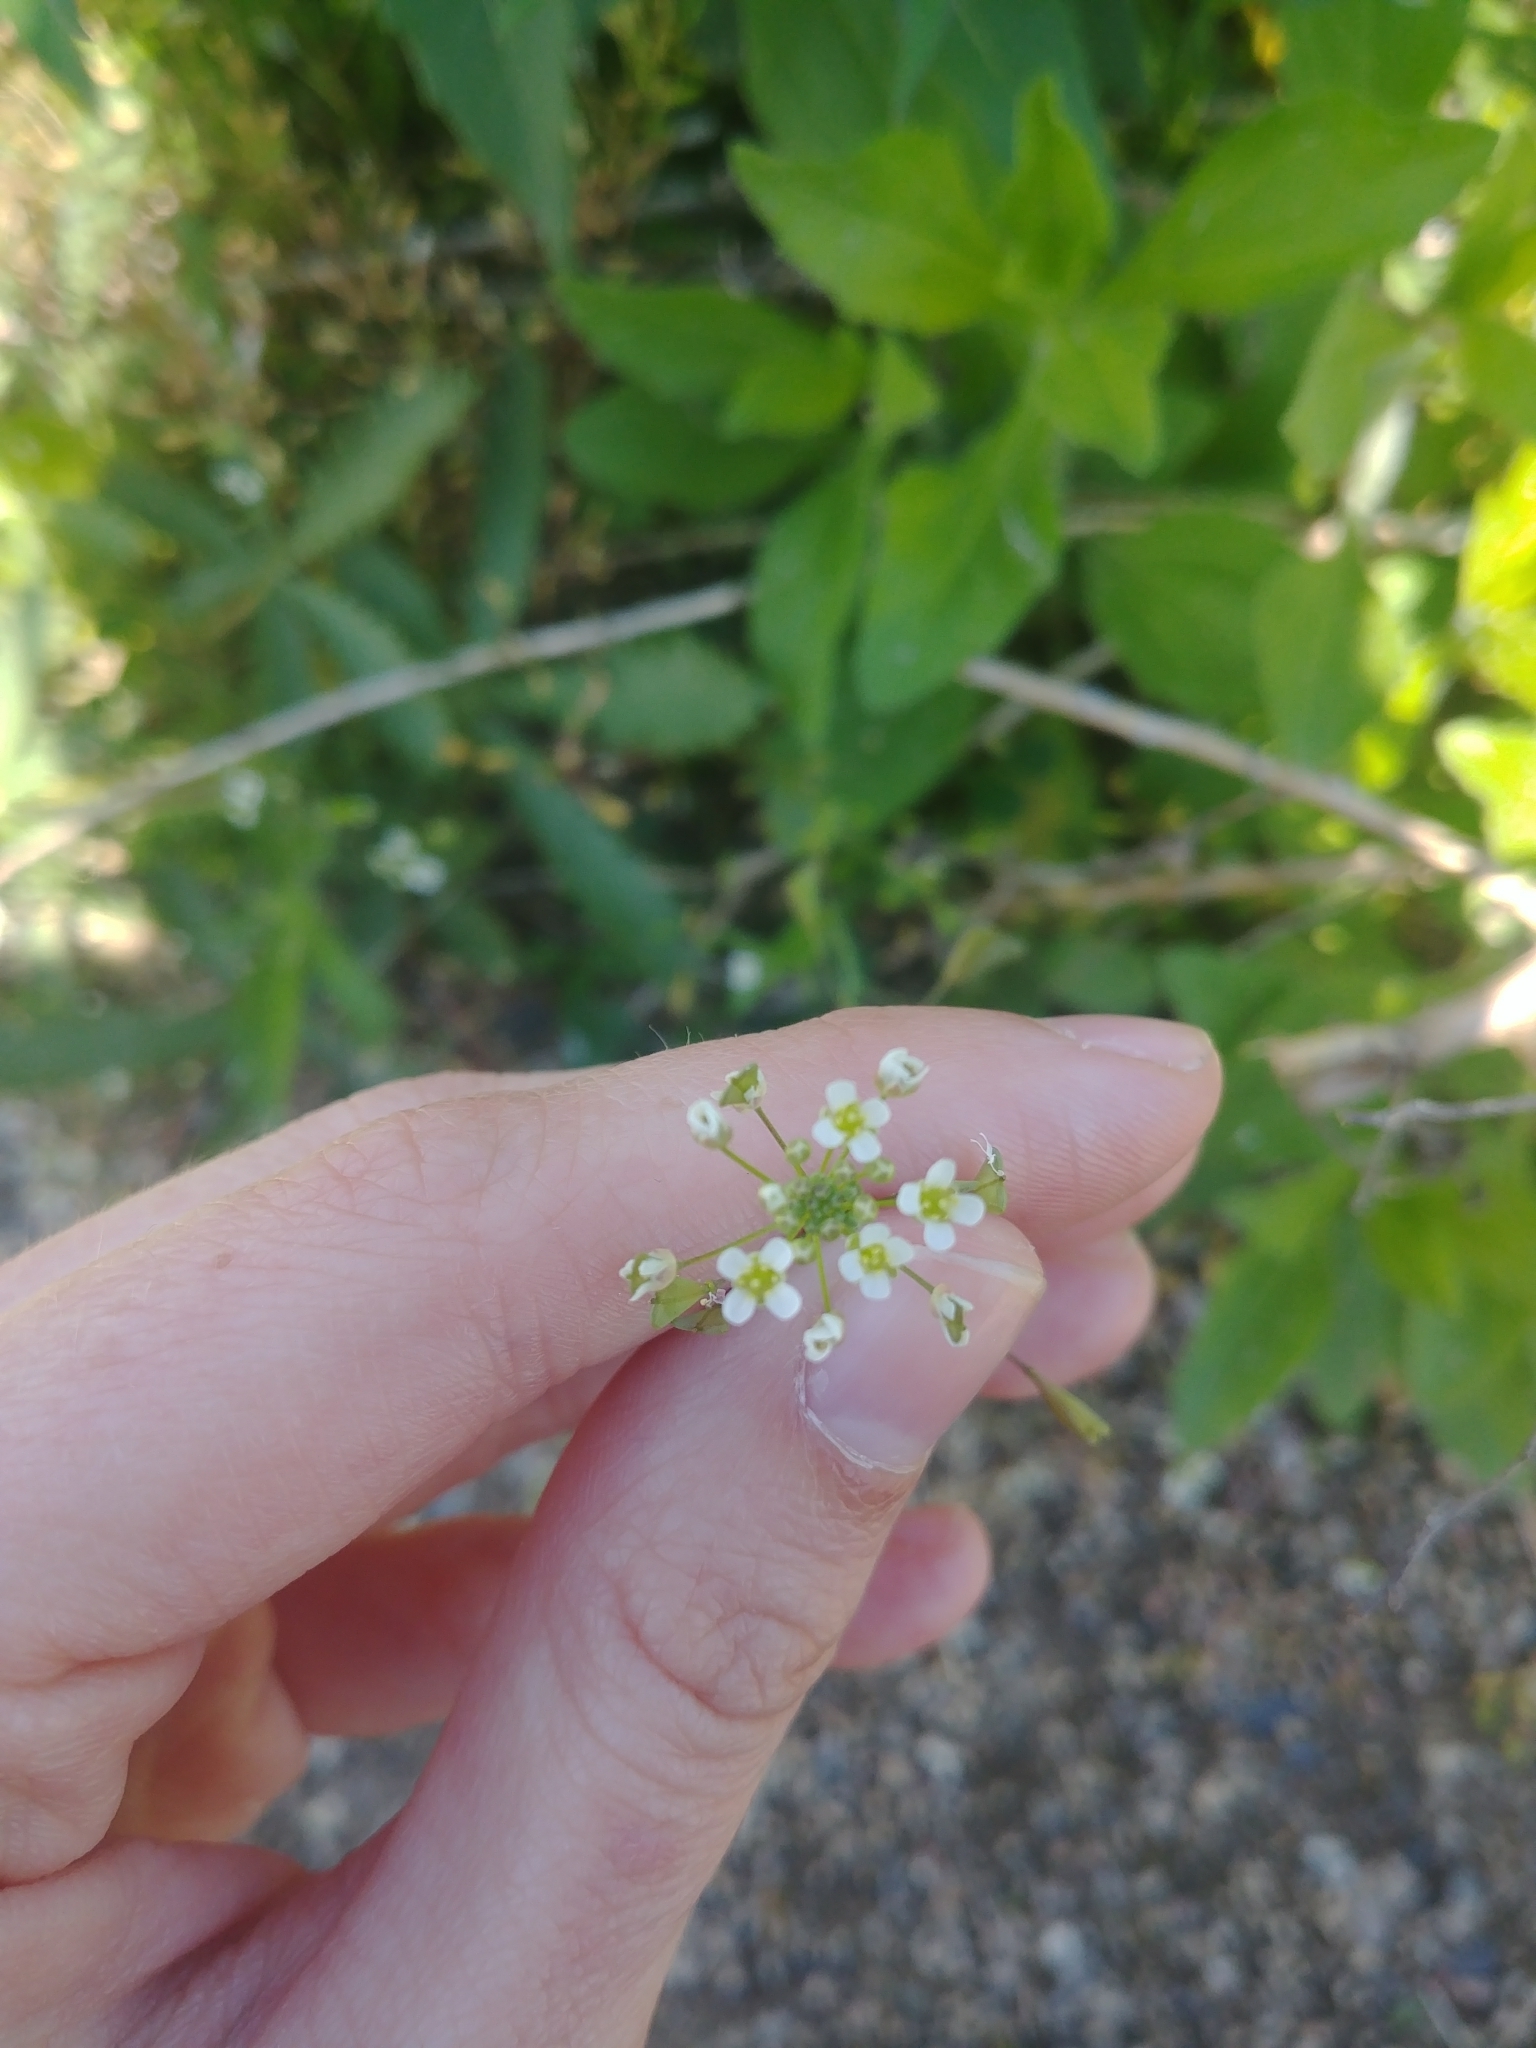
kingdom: Plantae
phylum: Tracheophyta
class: Magnoliopsida
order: Brassicales
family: Brassicaceae
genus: Capsella
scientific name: Capsella bursa-pastoris
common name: Shepherd's purse
